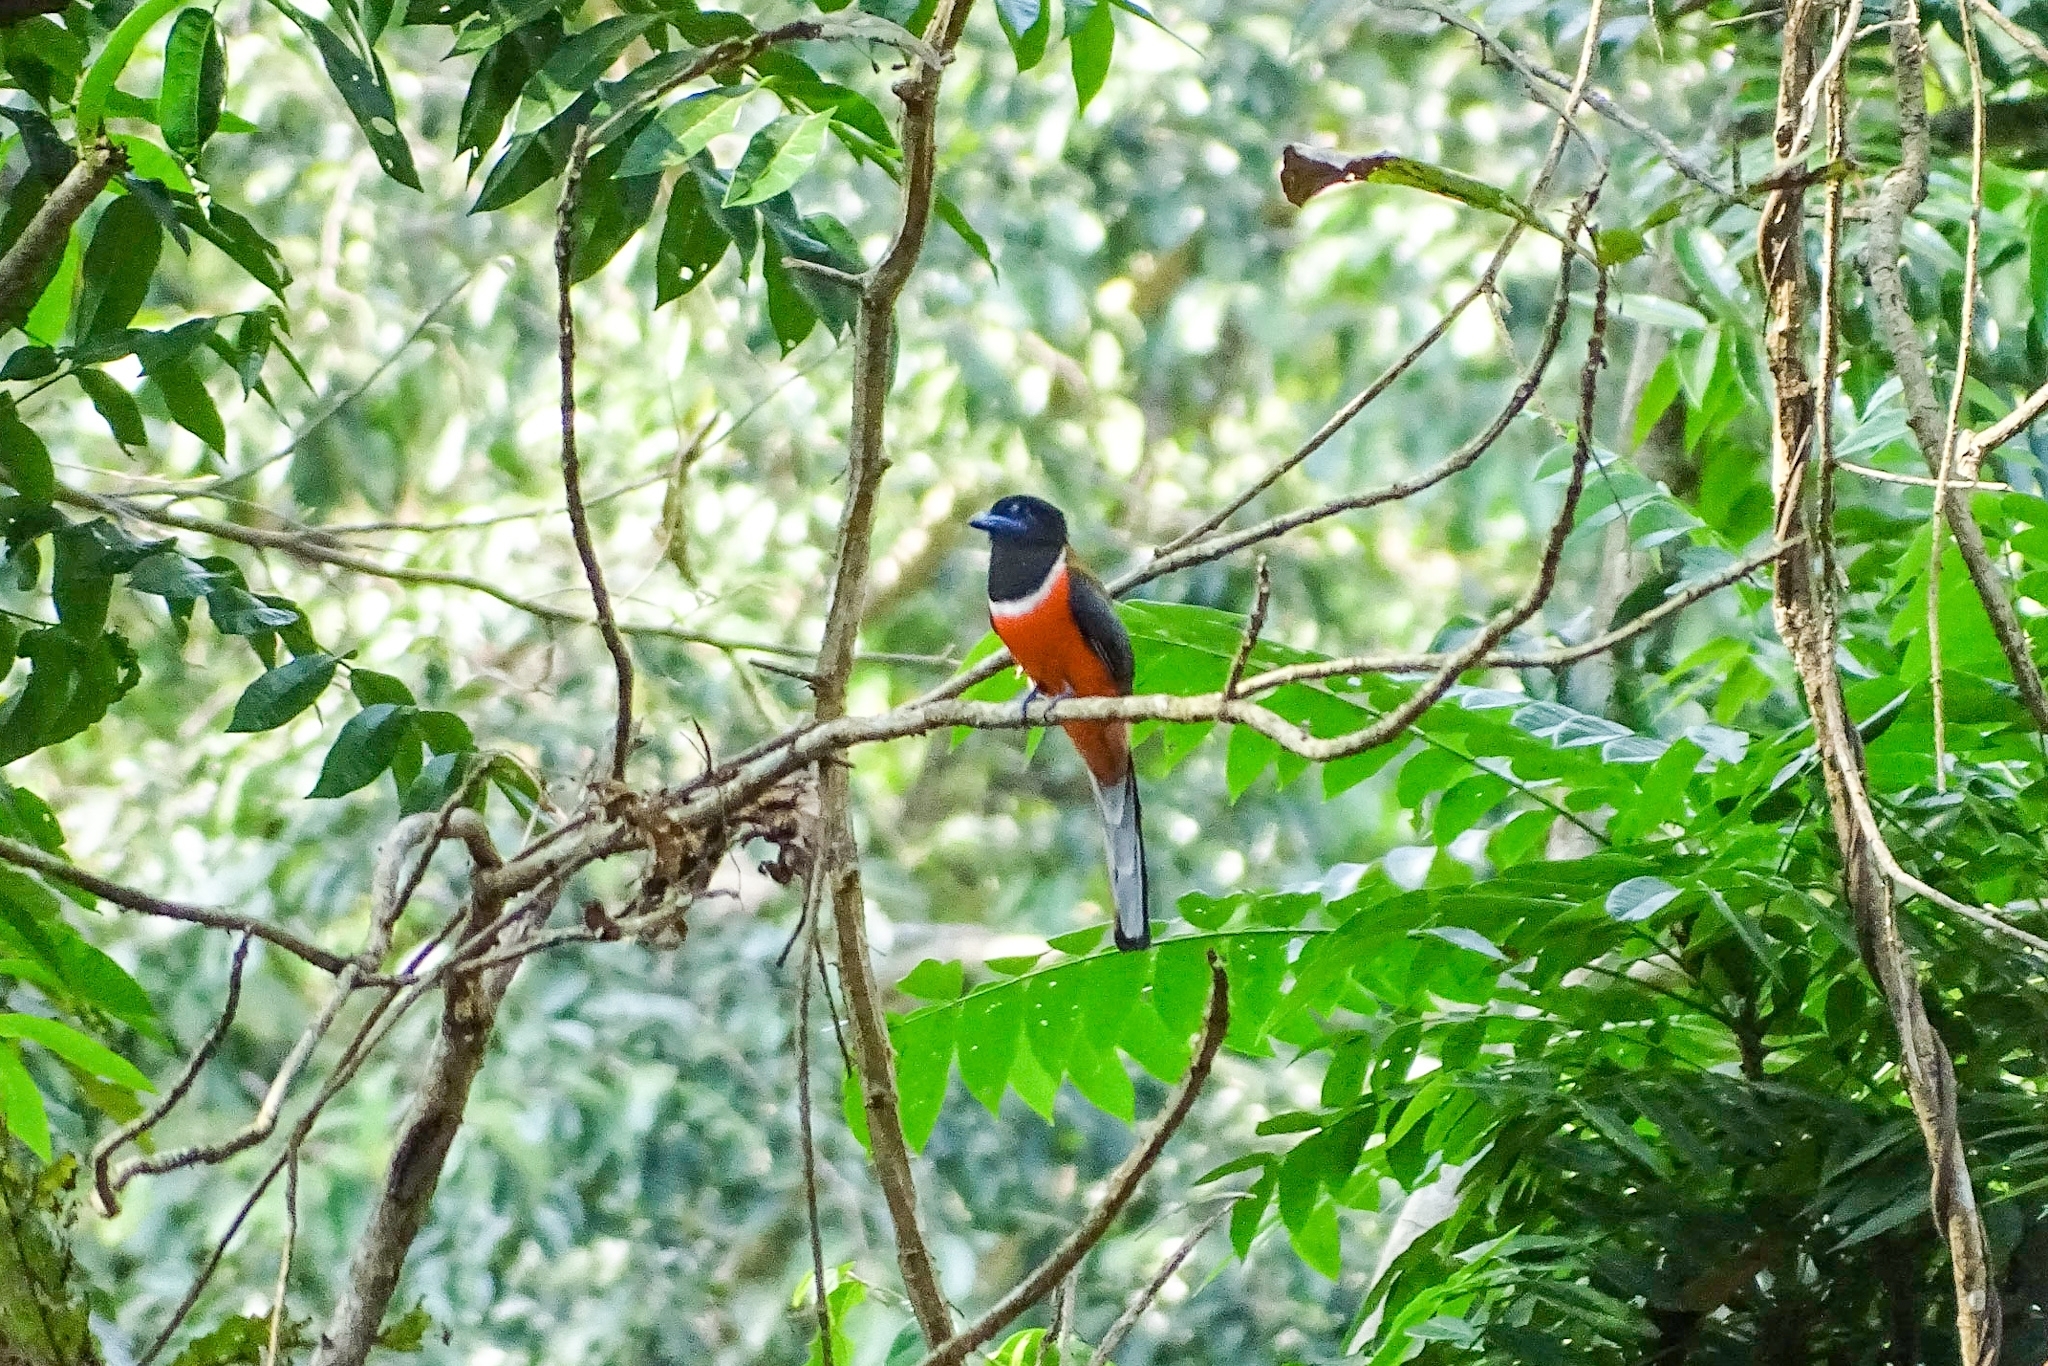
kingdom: Animalia
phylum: Chordata
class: Aves
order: Trogoniformes
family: Trogonidae
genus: Harpactes
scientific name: Harpactes fasciatus
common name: Malabar trogon
